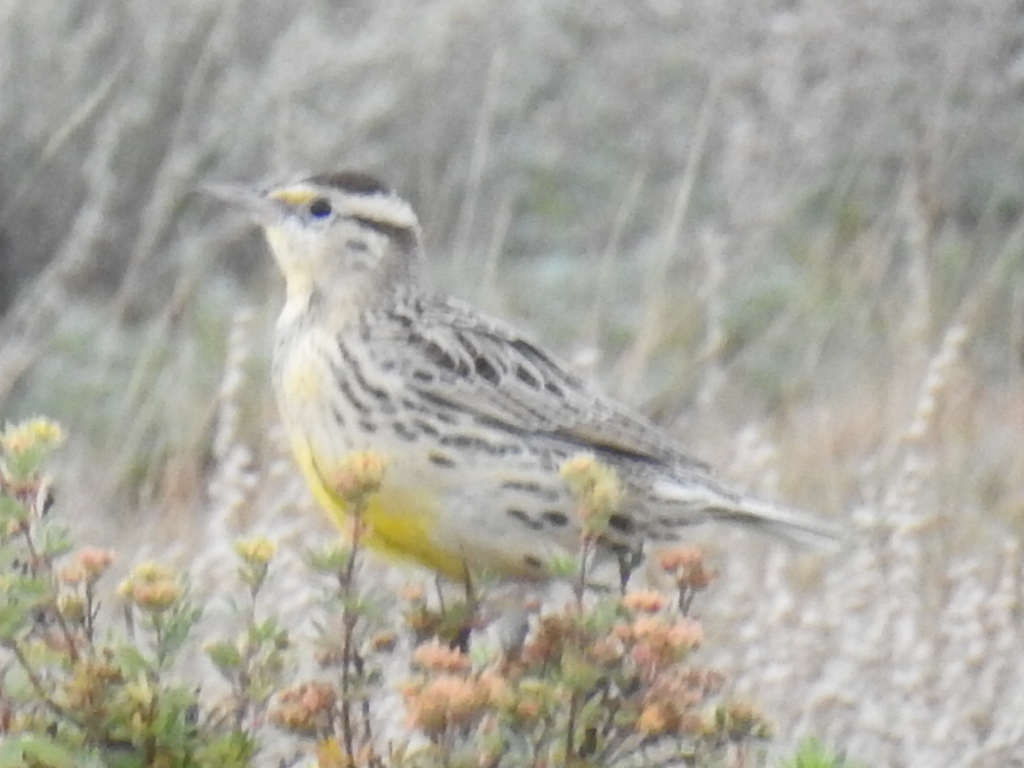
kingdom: Animalia
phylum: Chordata
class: Aves
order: Passeriformes
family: Icteridae
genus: Sturnella
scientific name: Sturnella neglecta
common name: Western meadowlark
